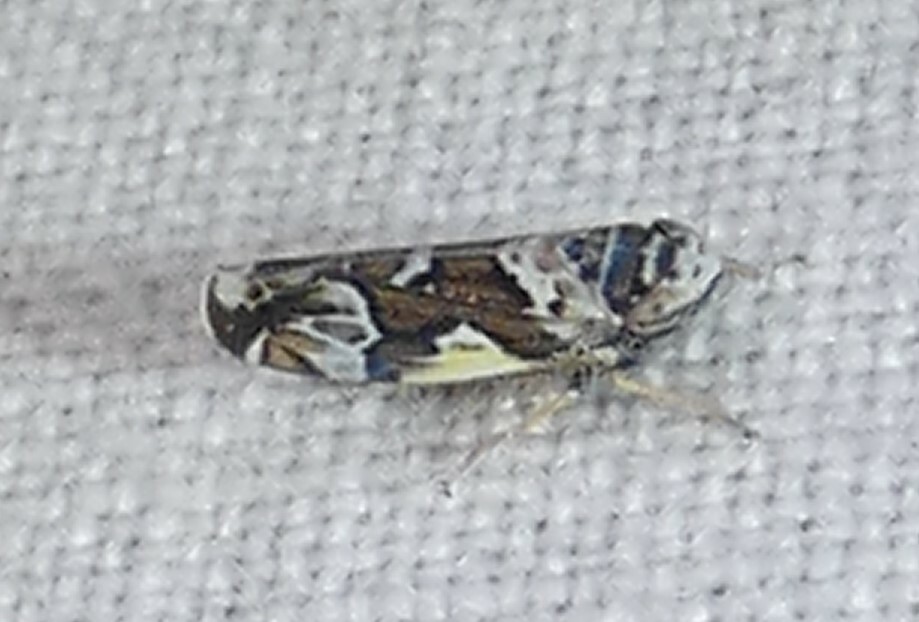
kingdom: Animalia
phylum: Arthropoda
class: Insecta
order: Hemiptera
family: Cicadellidae
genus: Sanctanus
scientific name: Sanctanus cruciatus
